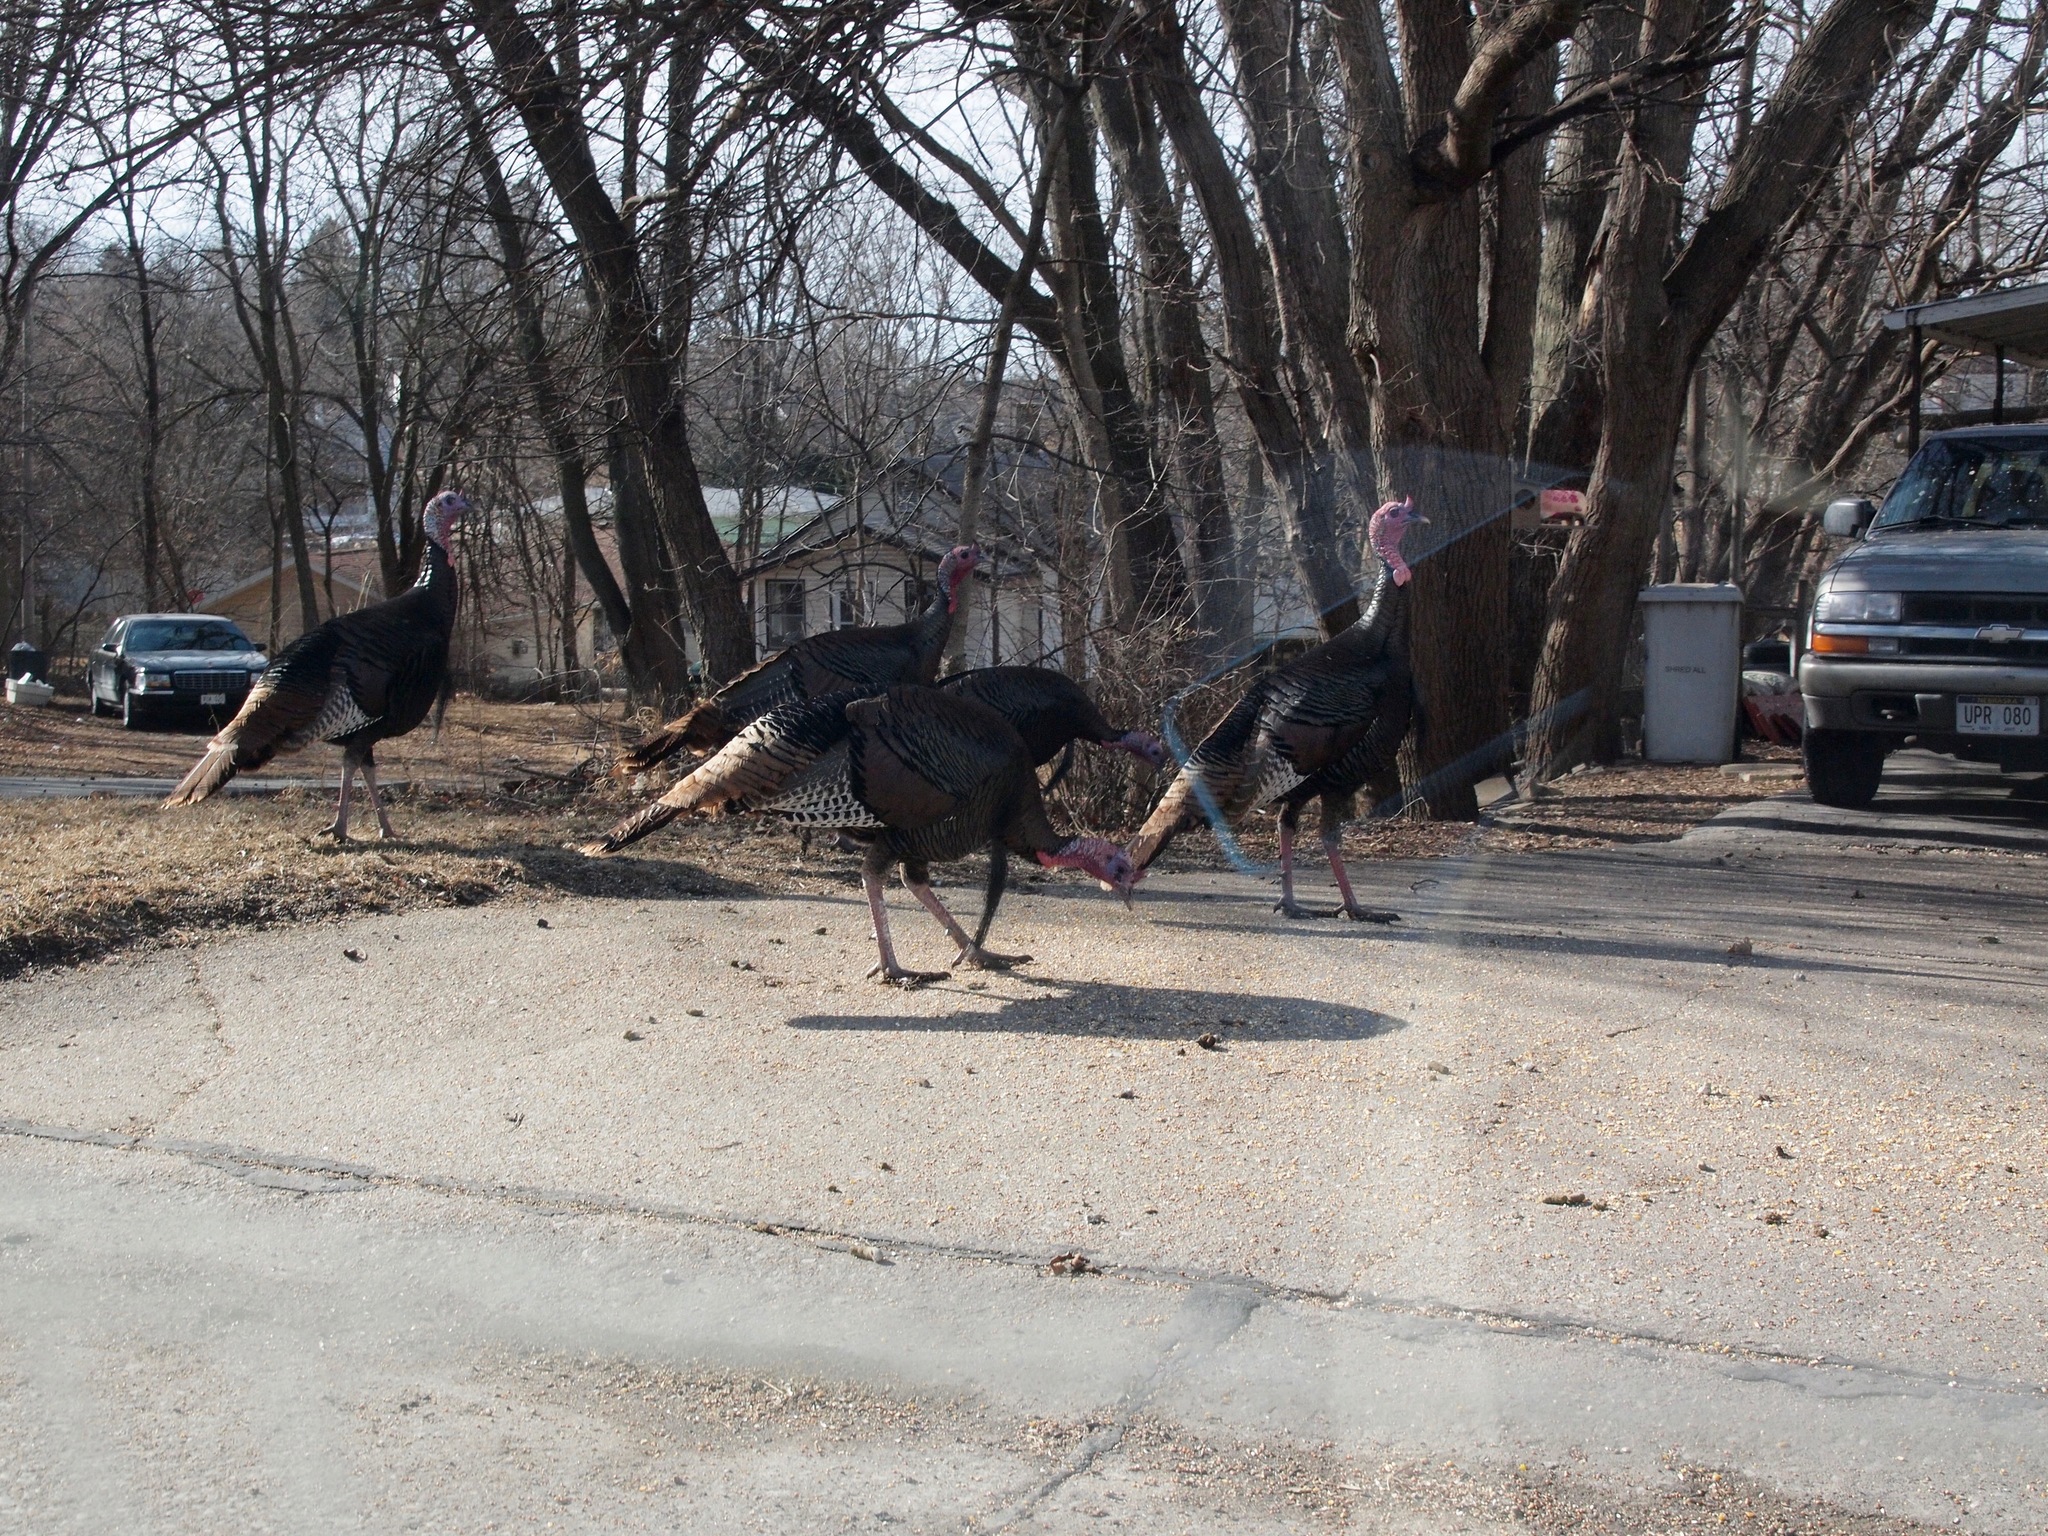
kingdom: Animalia
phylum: Chordata
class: Aves
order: Galliformes
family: Phasianidae
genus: Meleagris
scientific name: Meleagris gallopavo
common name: Wild turkey
